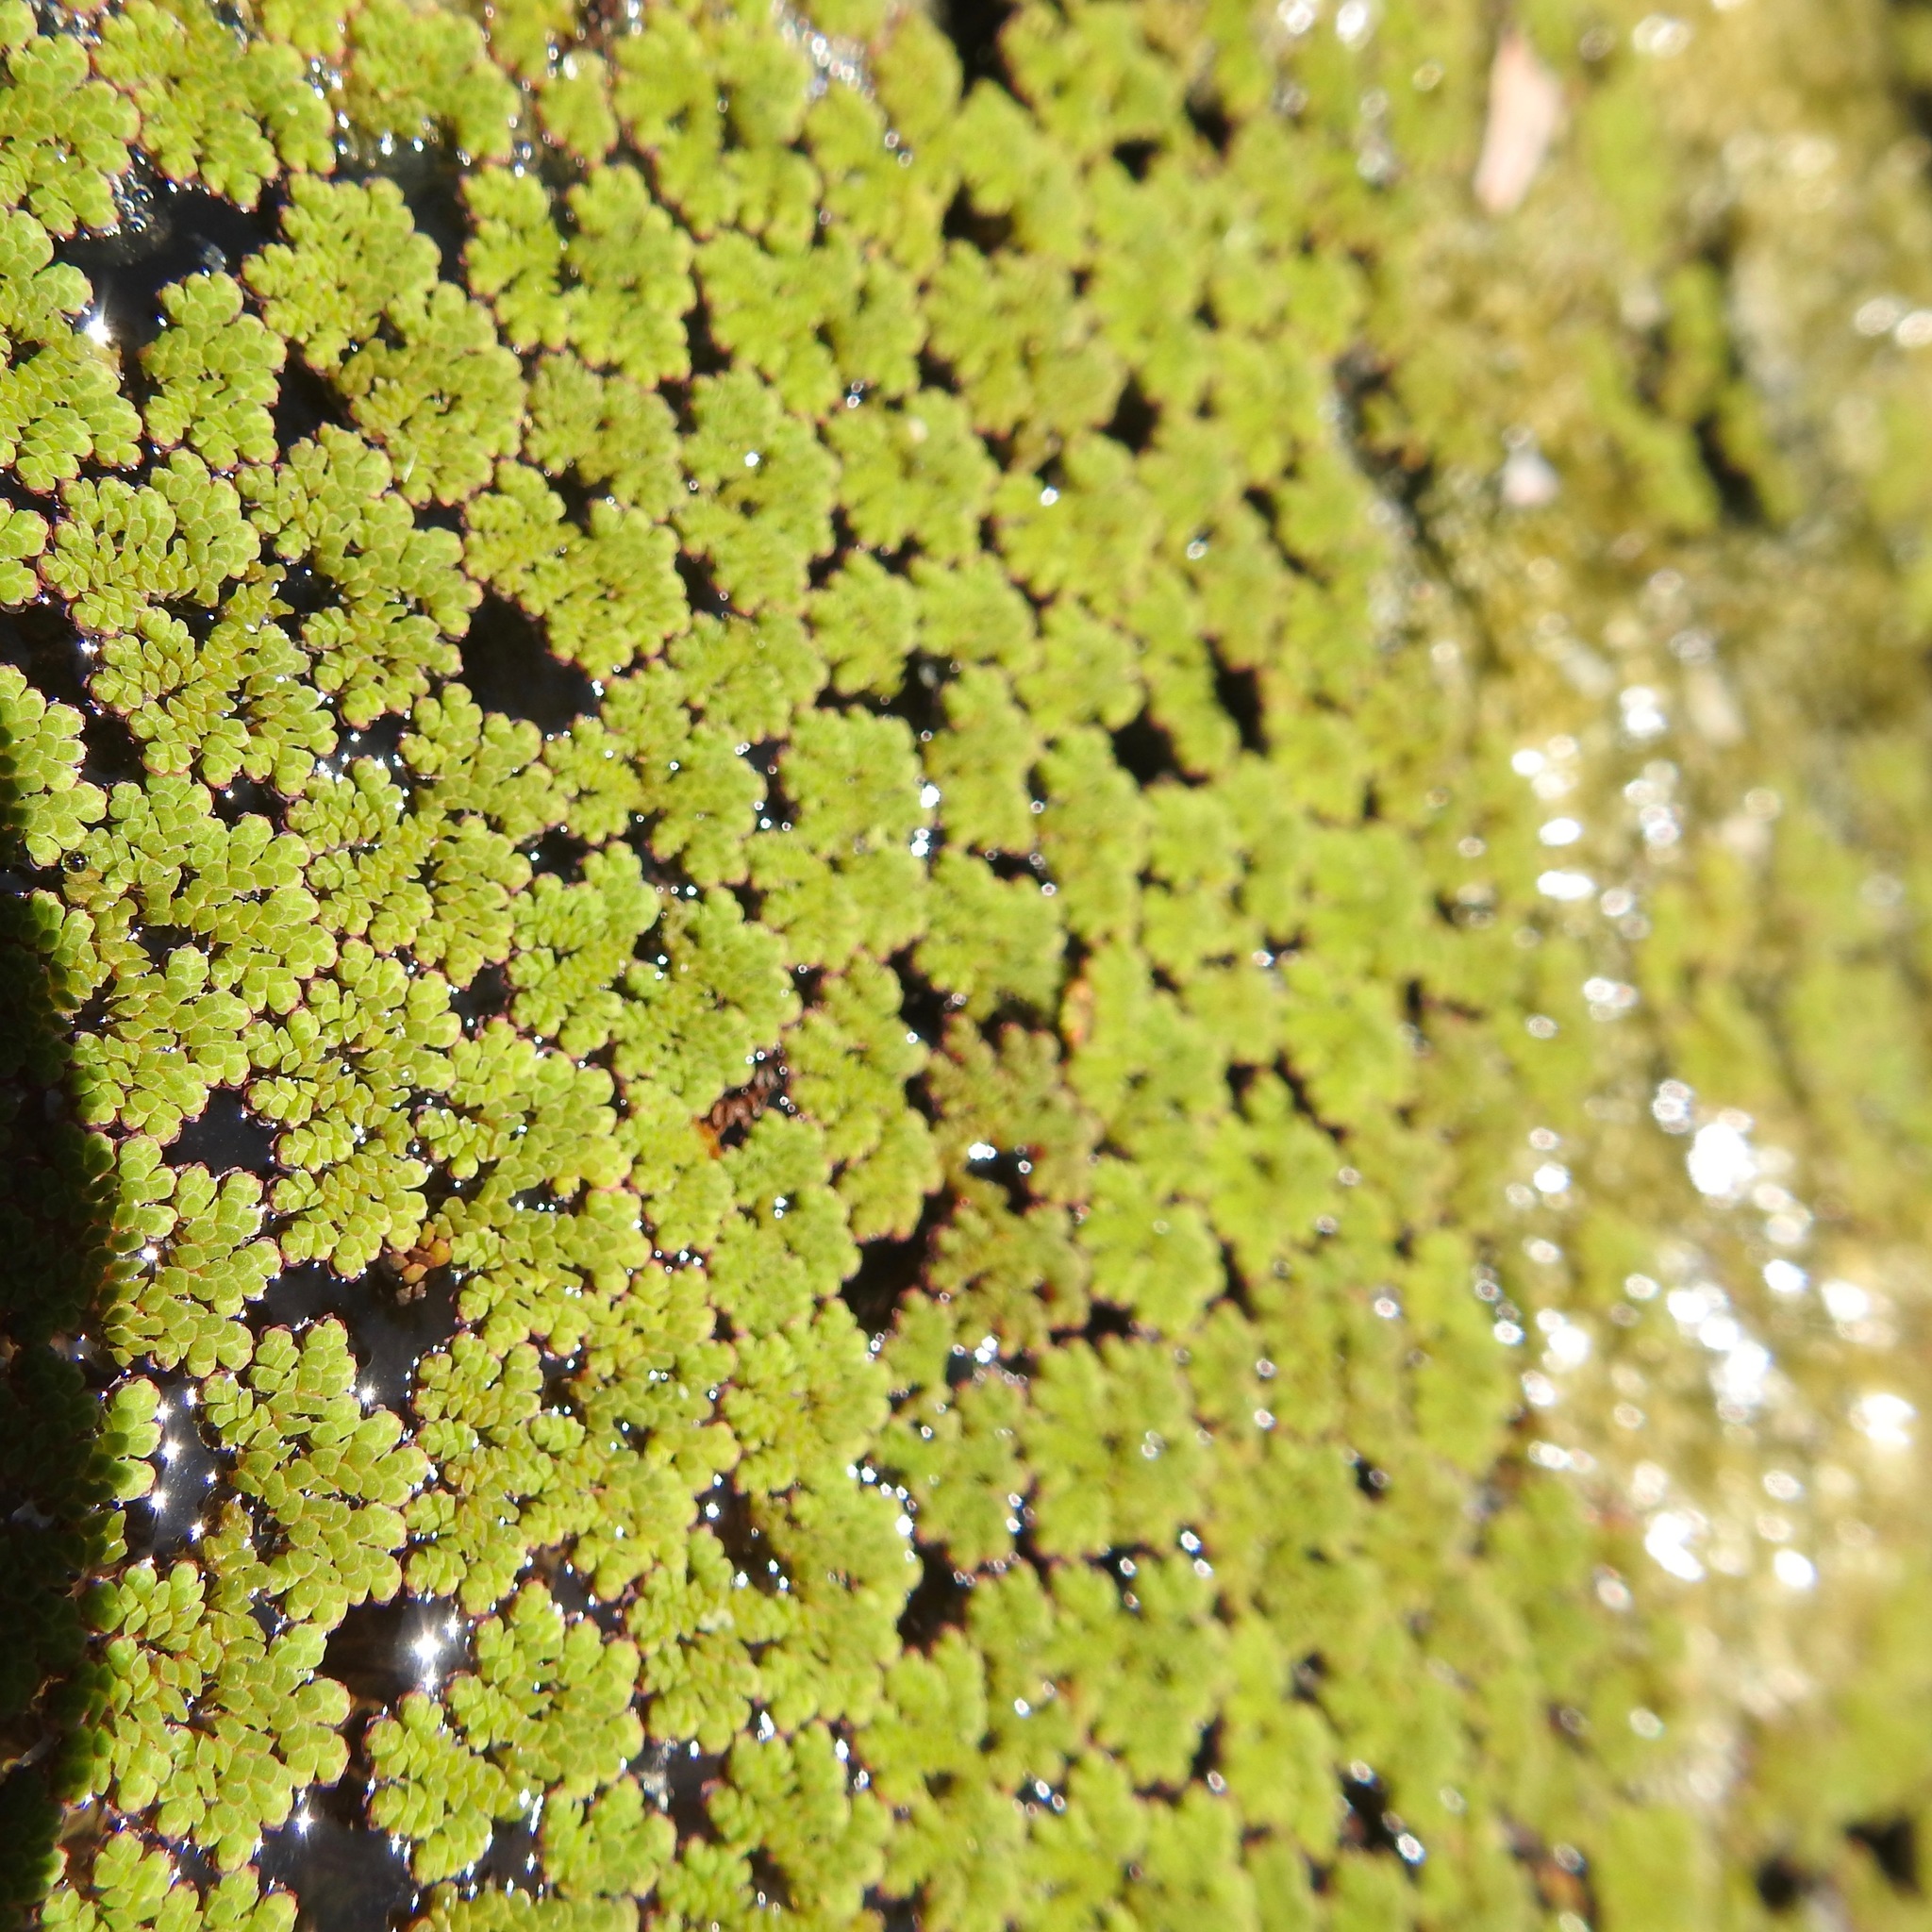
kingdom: Plantae
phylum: Tracheophyta
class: Polypodiopsida
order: Salviniales
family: Salviniaceae
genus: Azolla
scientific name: Azolla filiculoides
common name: Water fern
